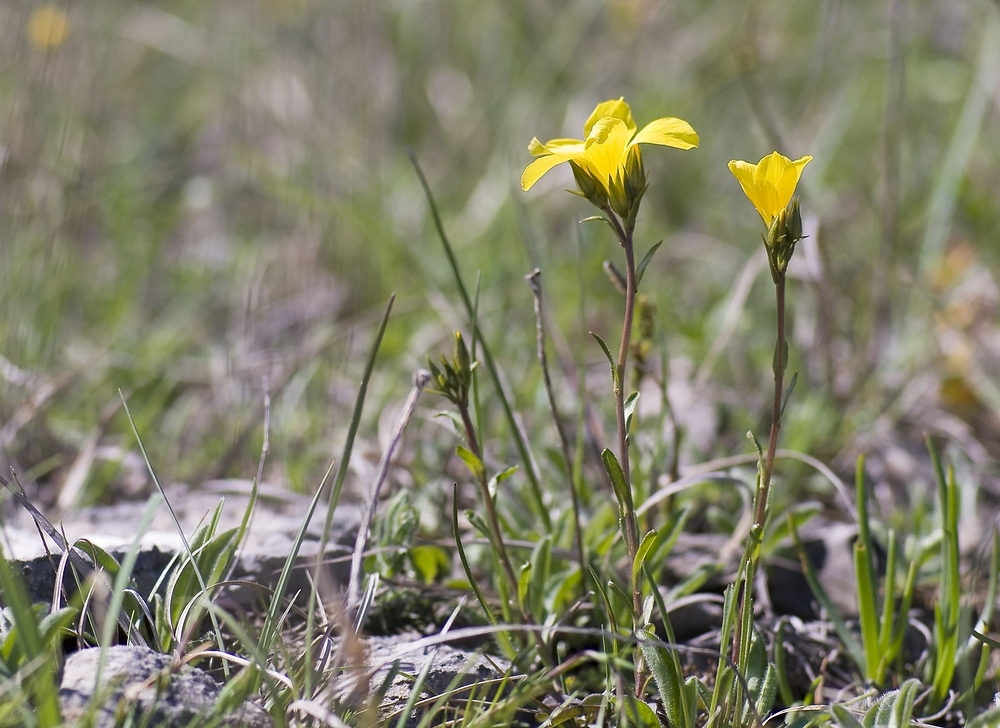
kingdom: Plantae
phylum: Tracheophyta
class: Magnoliopsida
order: Malpighiales
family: Linaceae
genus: Linum
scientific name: Linum campanulatum
